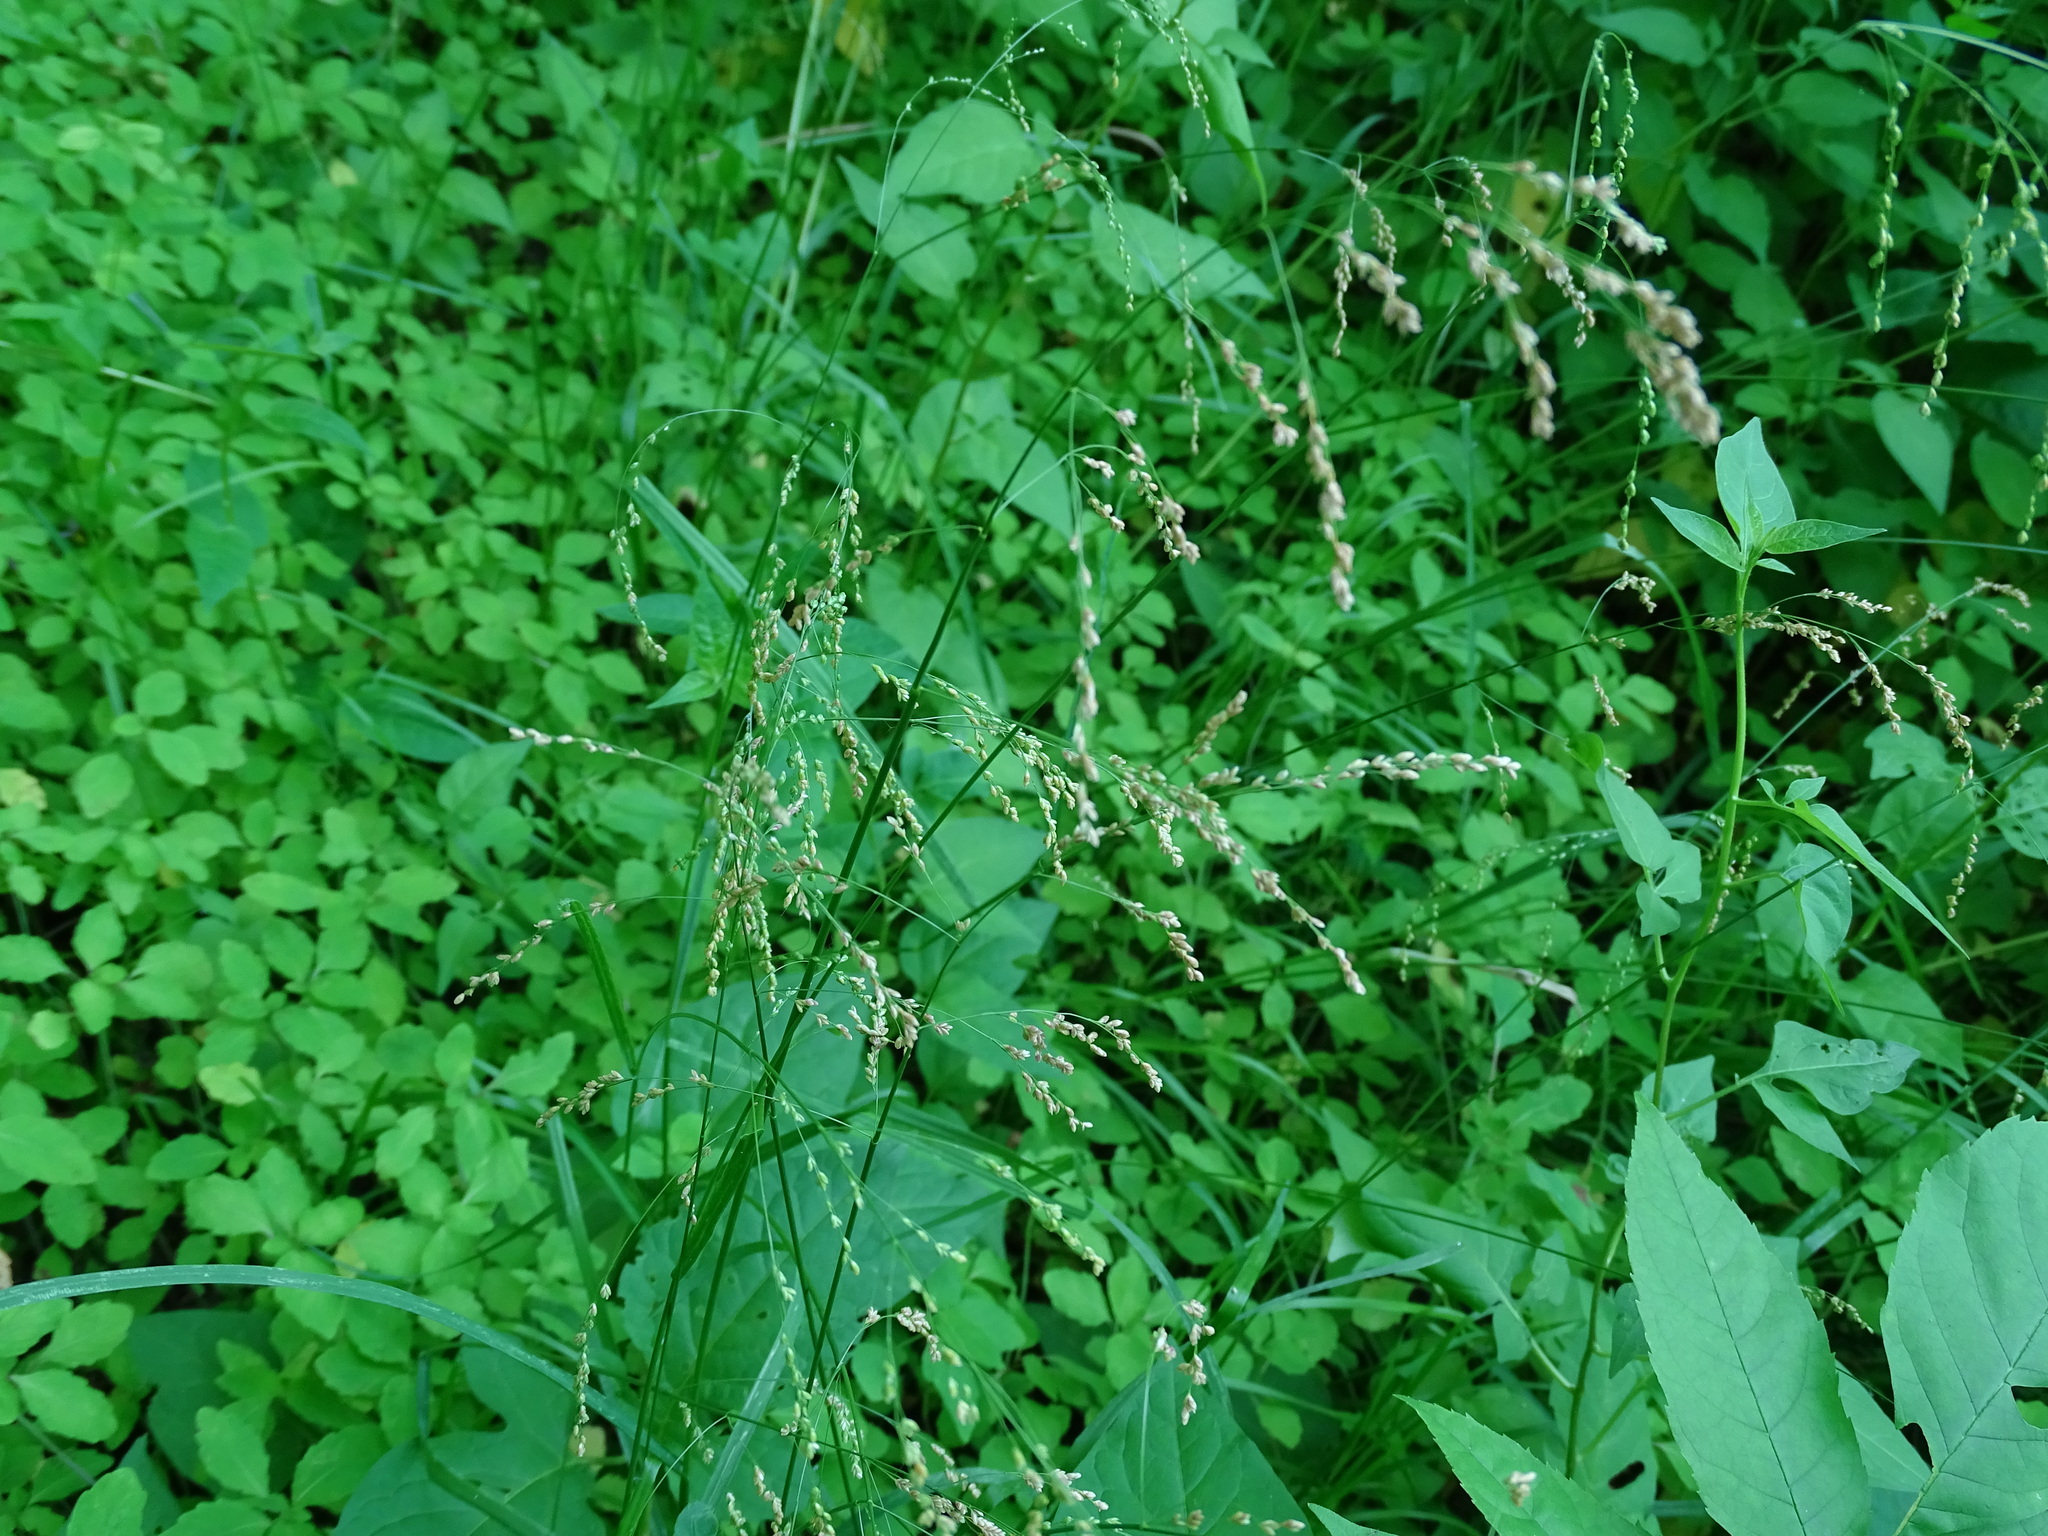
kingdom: Plantae
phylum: Tracheophyta
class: Liliopsida
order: Poales
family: Poaceae
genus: Glyceria
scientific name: Glyceria striata
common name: Fowl manna grass
